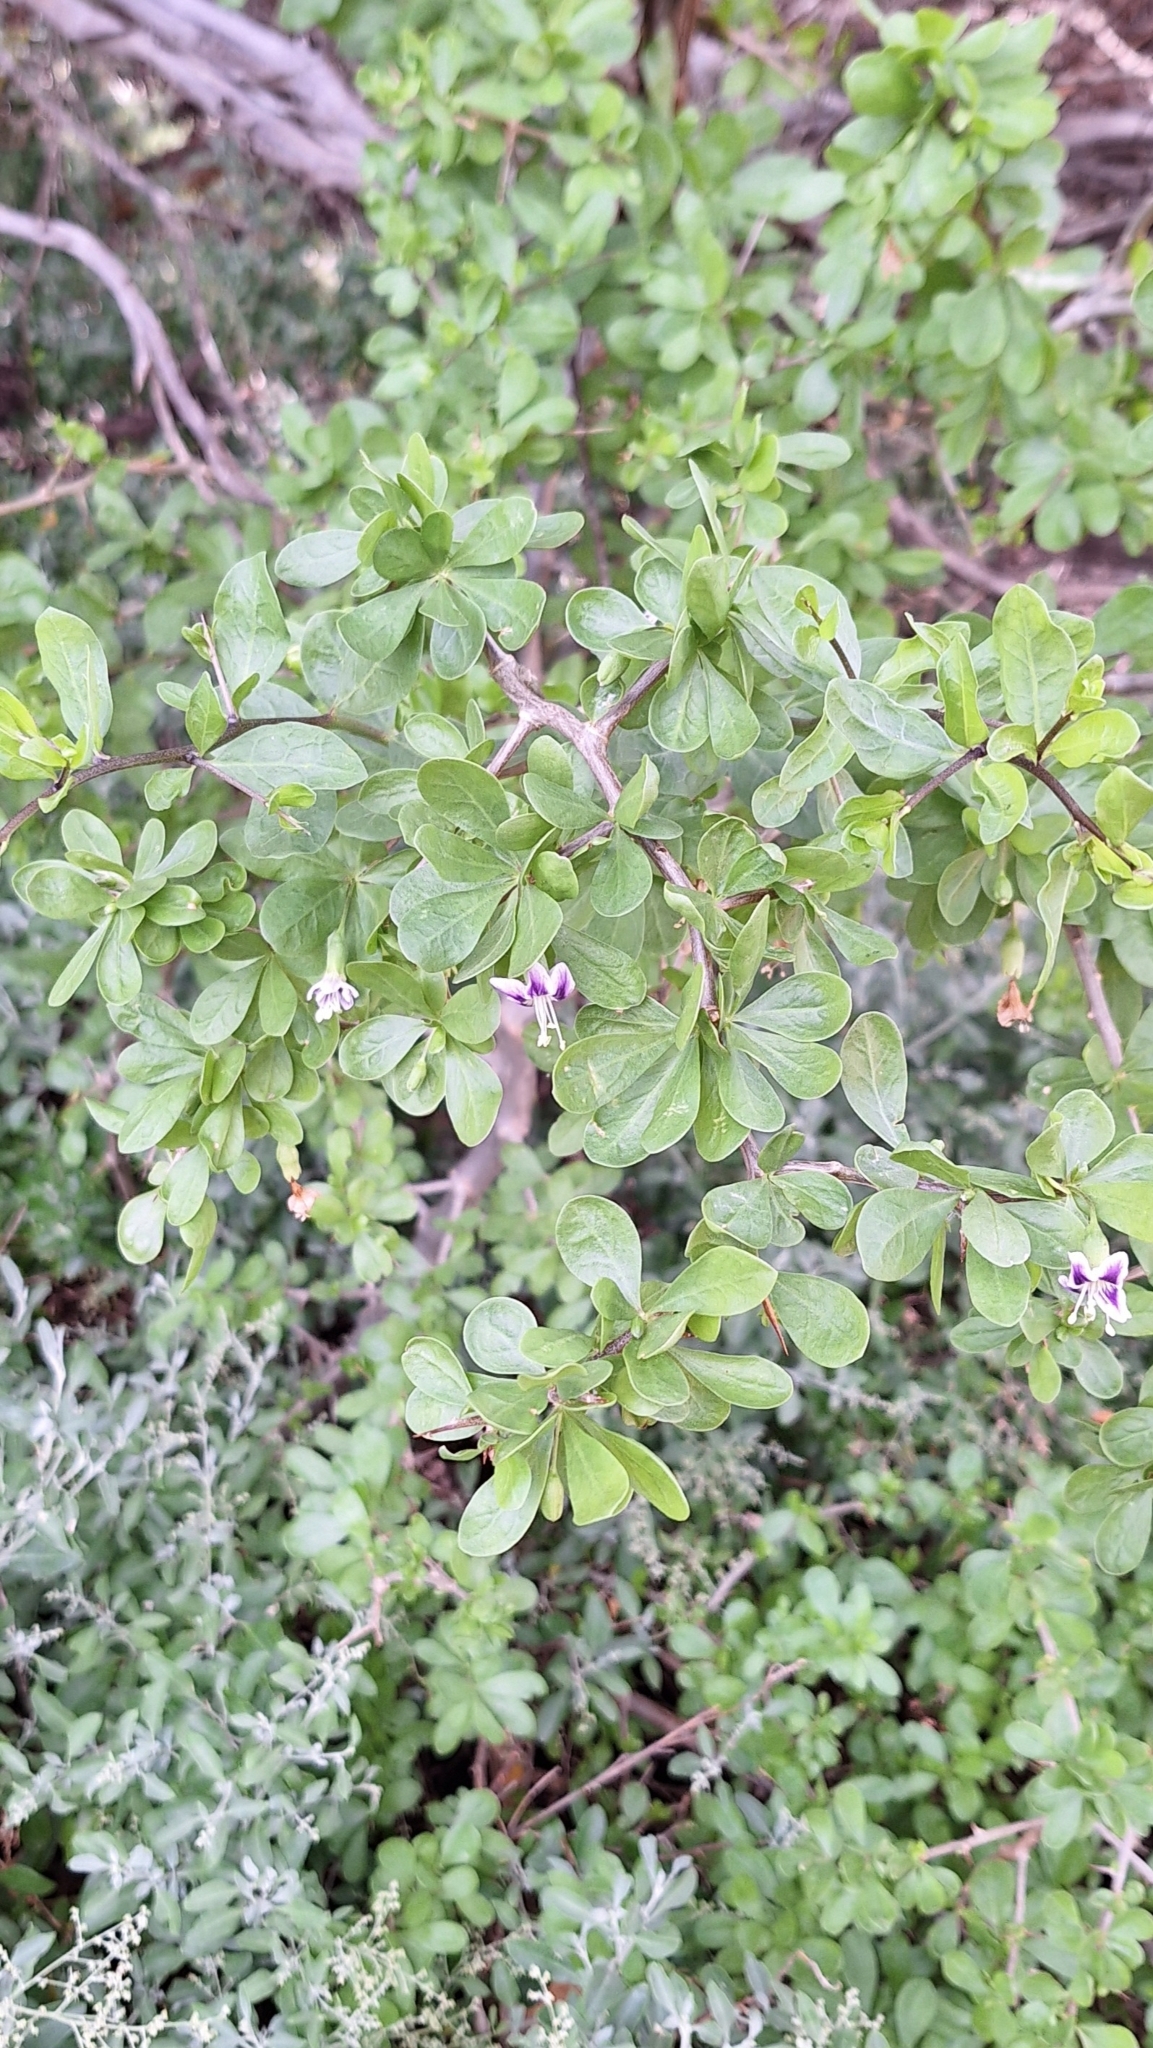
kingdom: Plantae
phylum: Tracheophyta
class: Magnoliopsida
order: Solanales
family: Solanaceae
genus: Lycium
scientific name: Lycium ferocissimum
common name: African boxthorn
